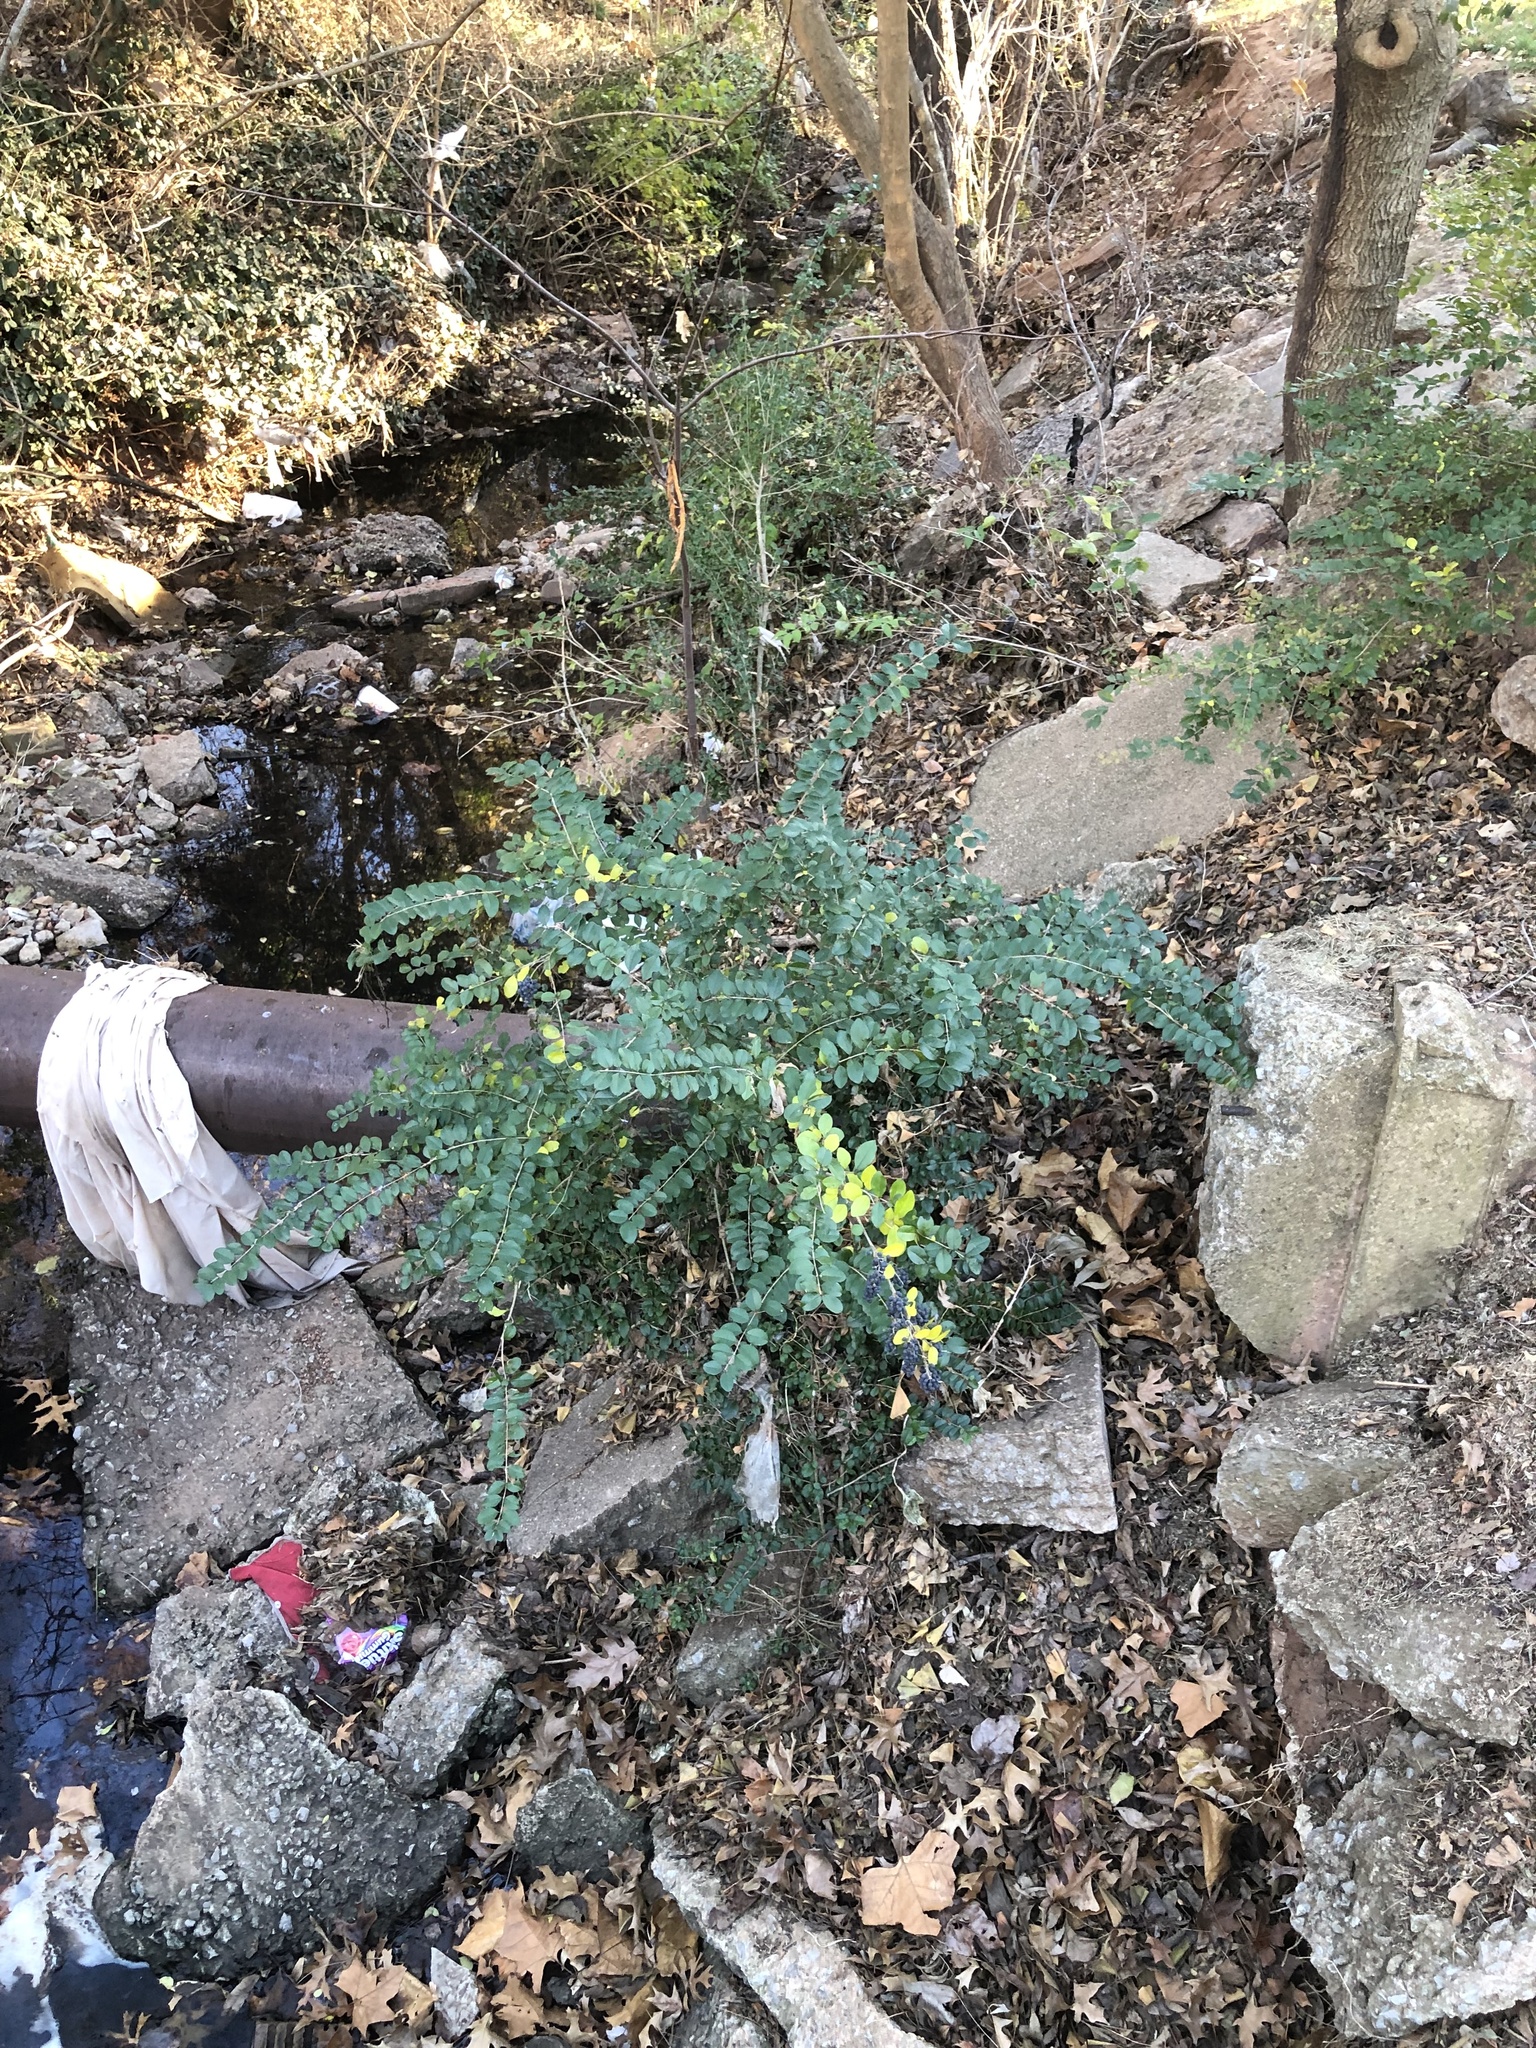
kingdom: Plantae
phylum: Tracheophyta
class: Magnoliopsida
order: Lamiales
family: Oleaceae
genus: Ligustrum
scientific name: Ligustrum sinense
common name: Chinese privet
